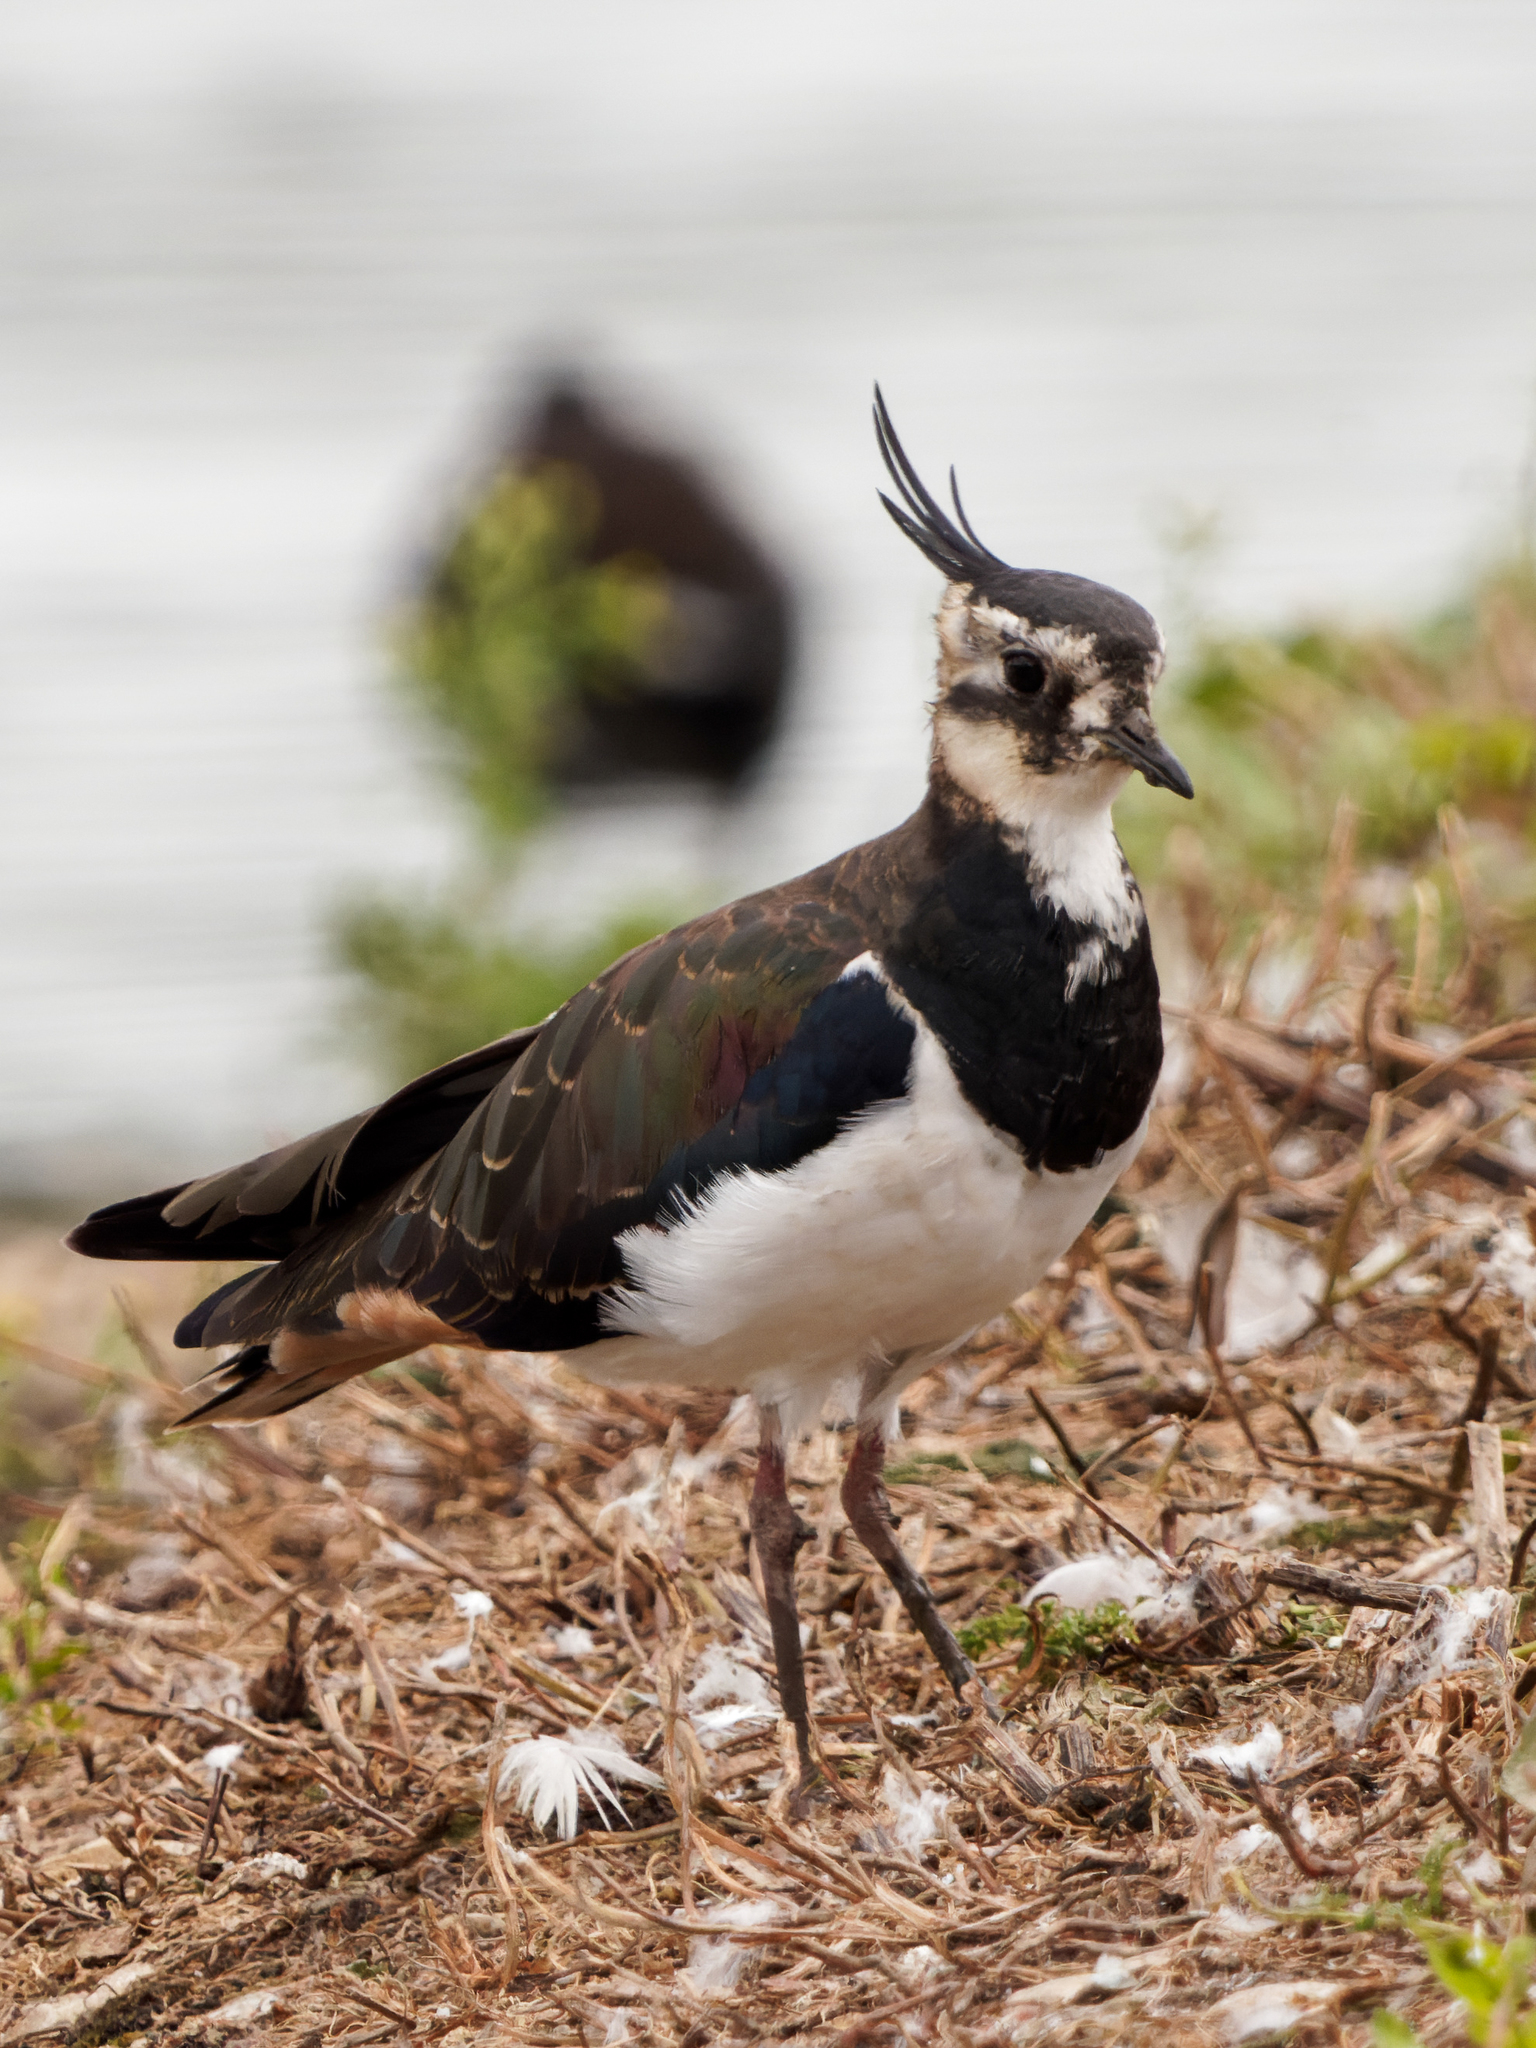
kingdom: Animalia
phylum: Chordata
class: Aves
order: Charadriiformes
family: Charadriidae
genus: Vanellus
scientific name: Vanellus vanellus
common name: Northern lapwing
